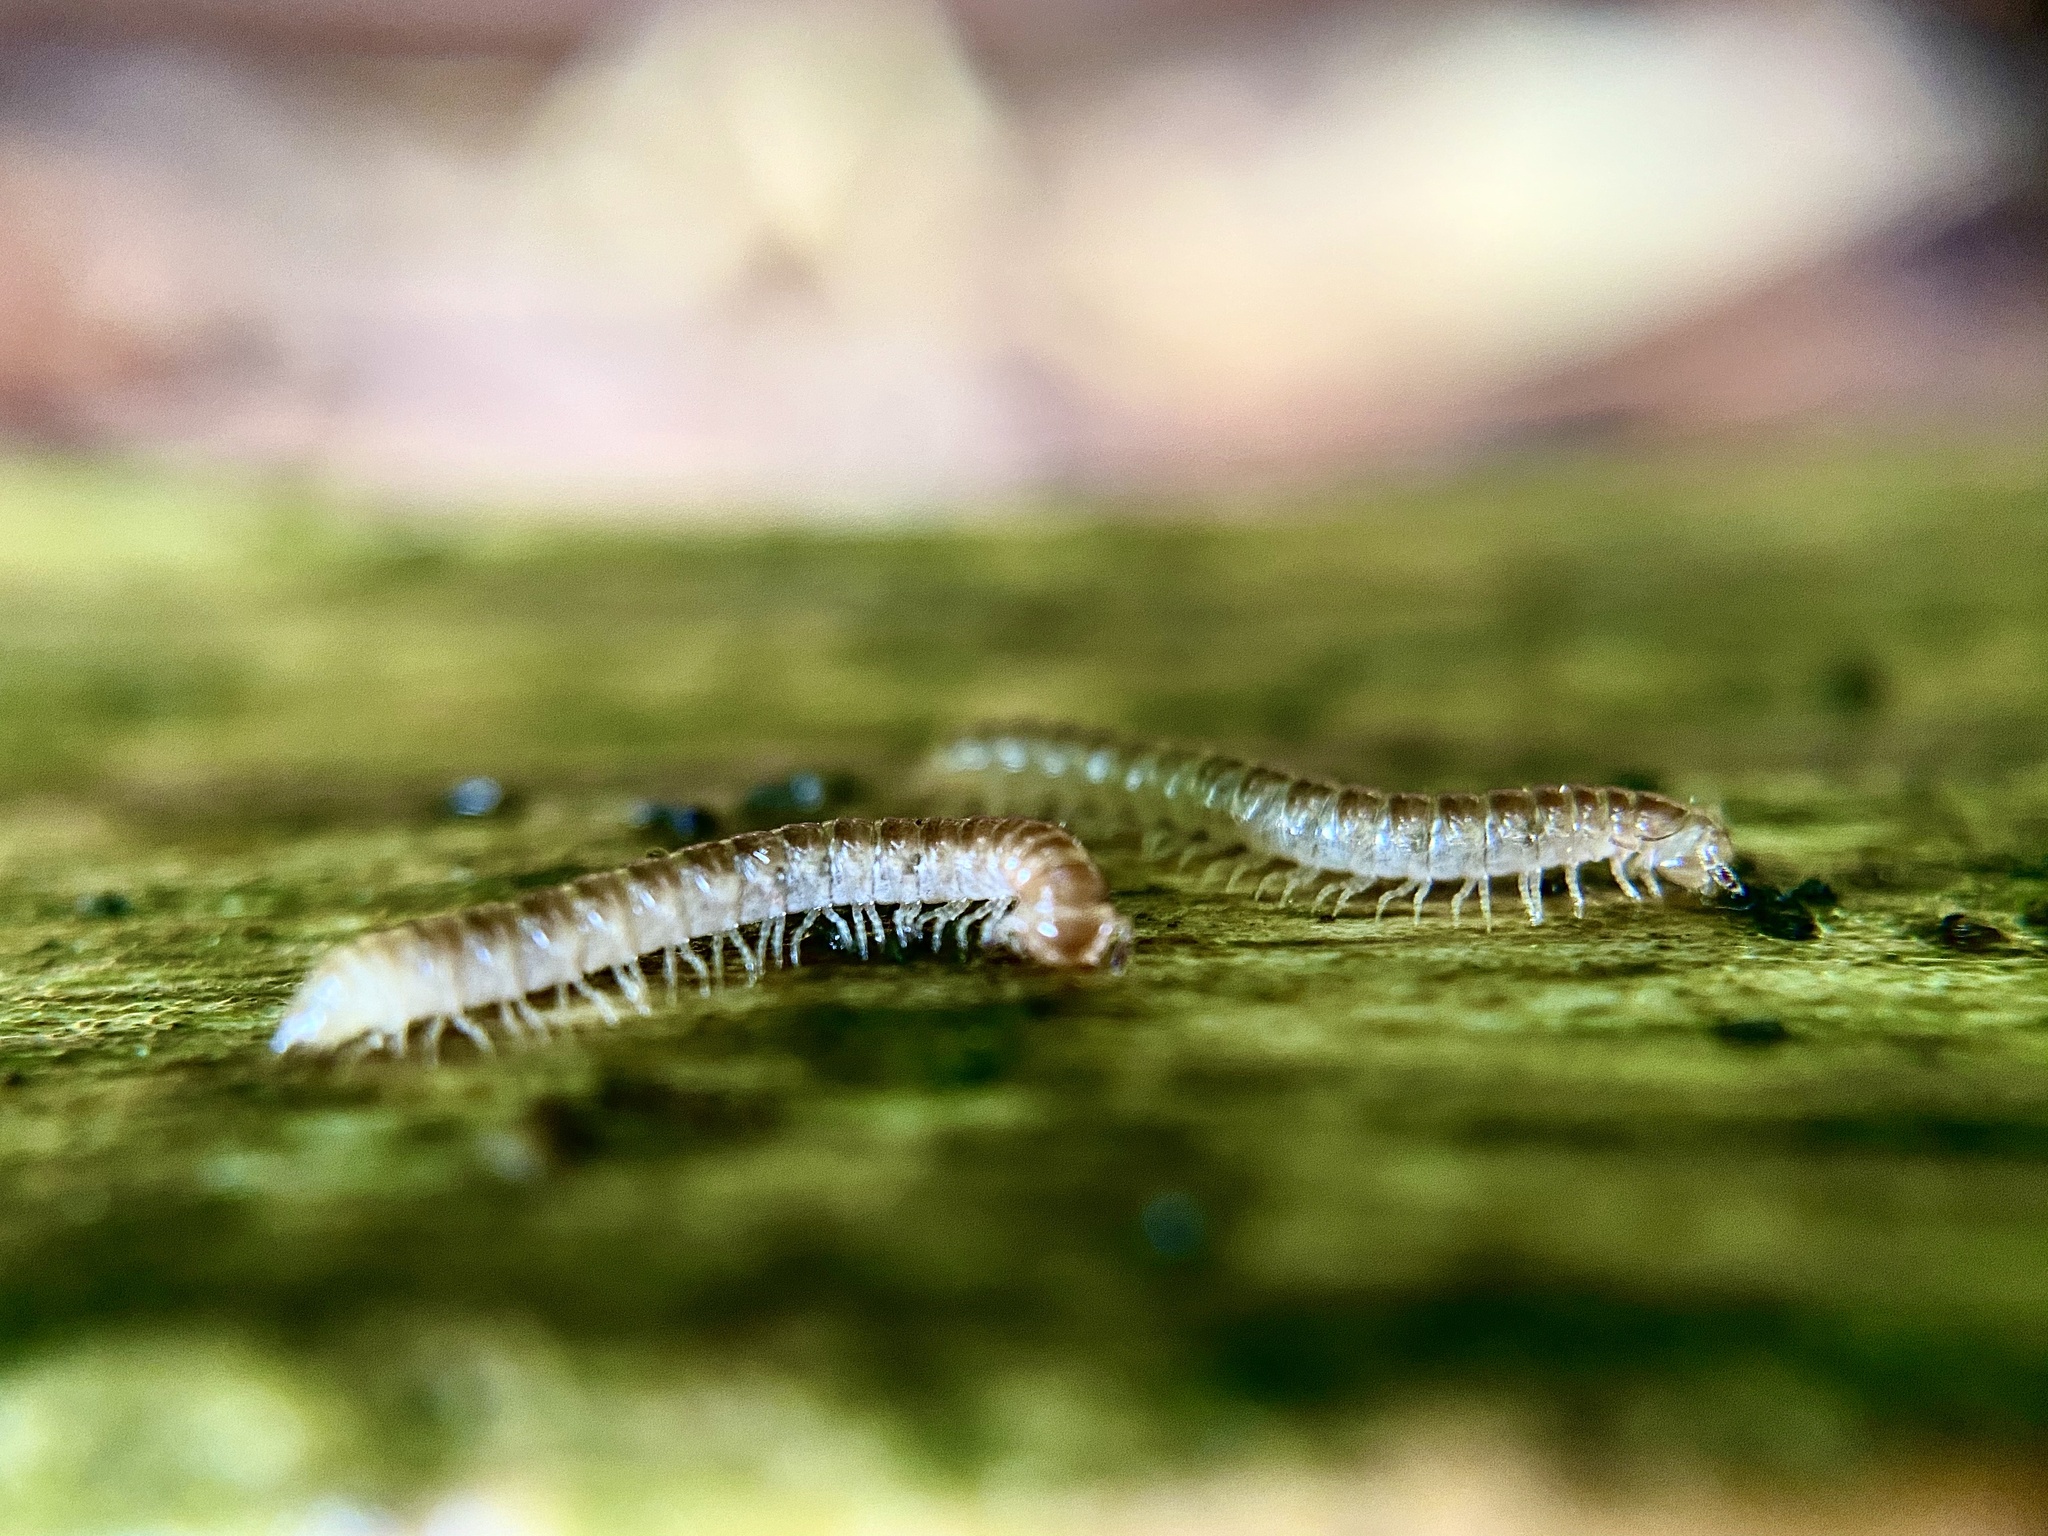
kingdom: Animalia
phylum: Arthropoda
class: Diplopoda
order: Polydesmida
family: Paradoxosomatidae
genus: Oxidus
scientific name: Oxidus gracilis
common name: Greenhouse millipede
